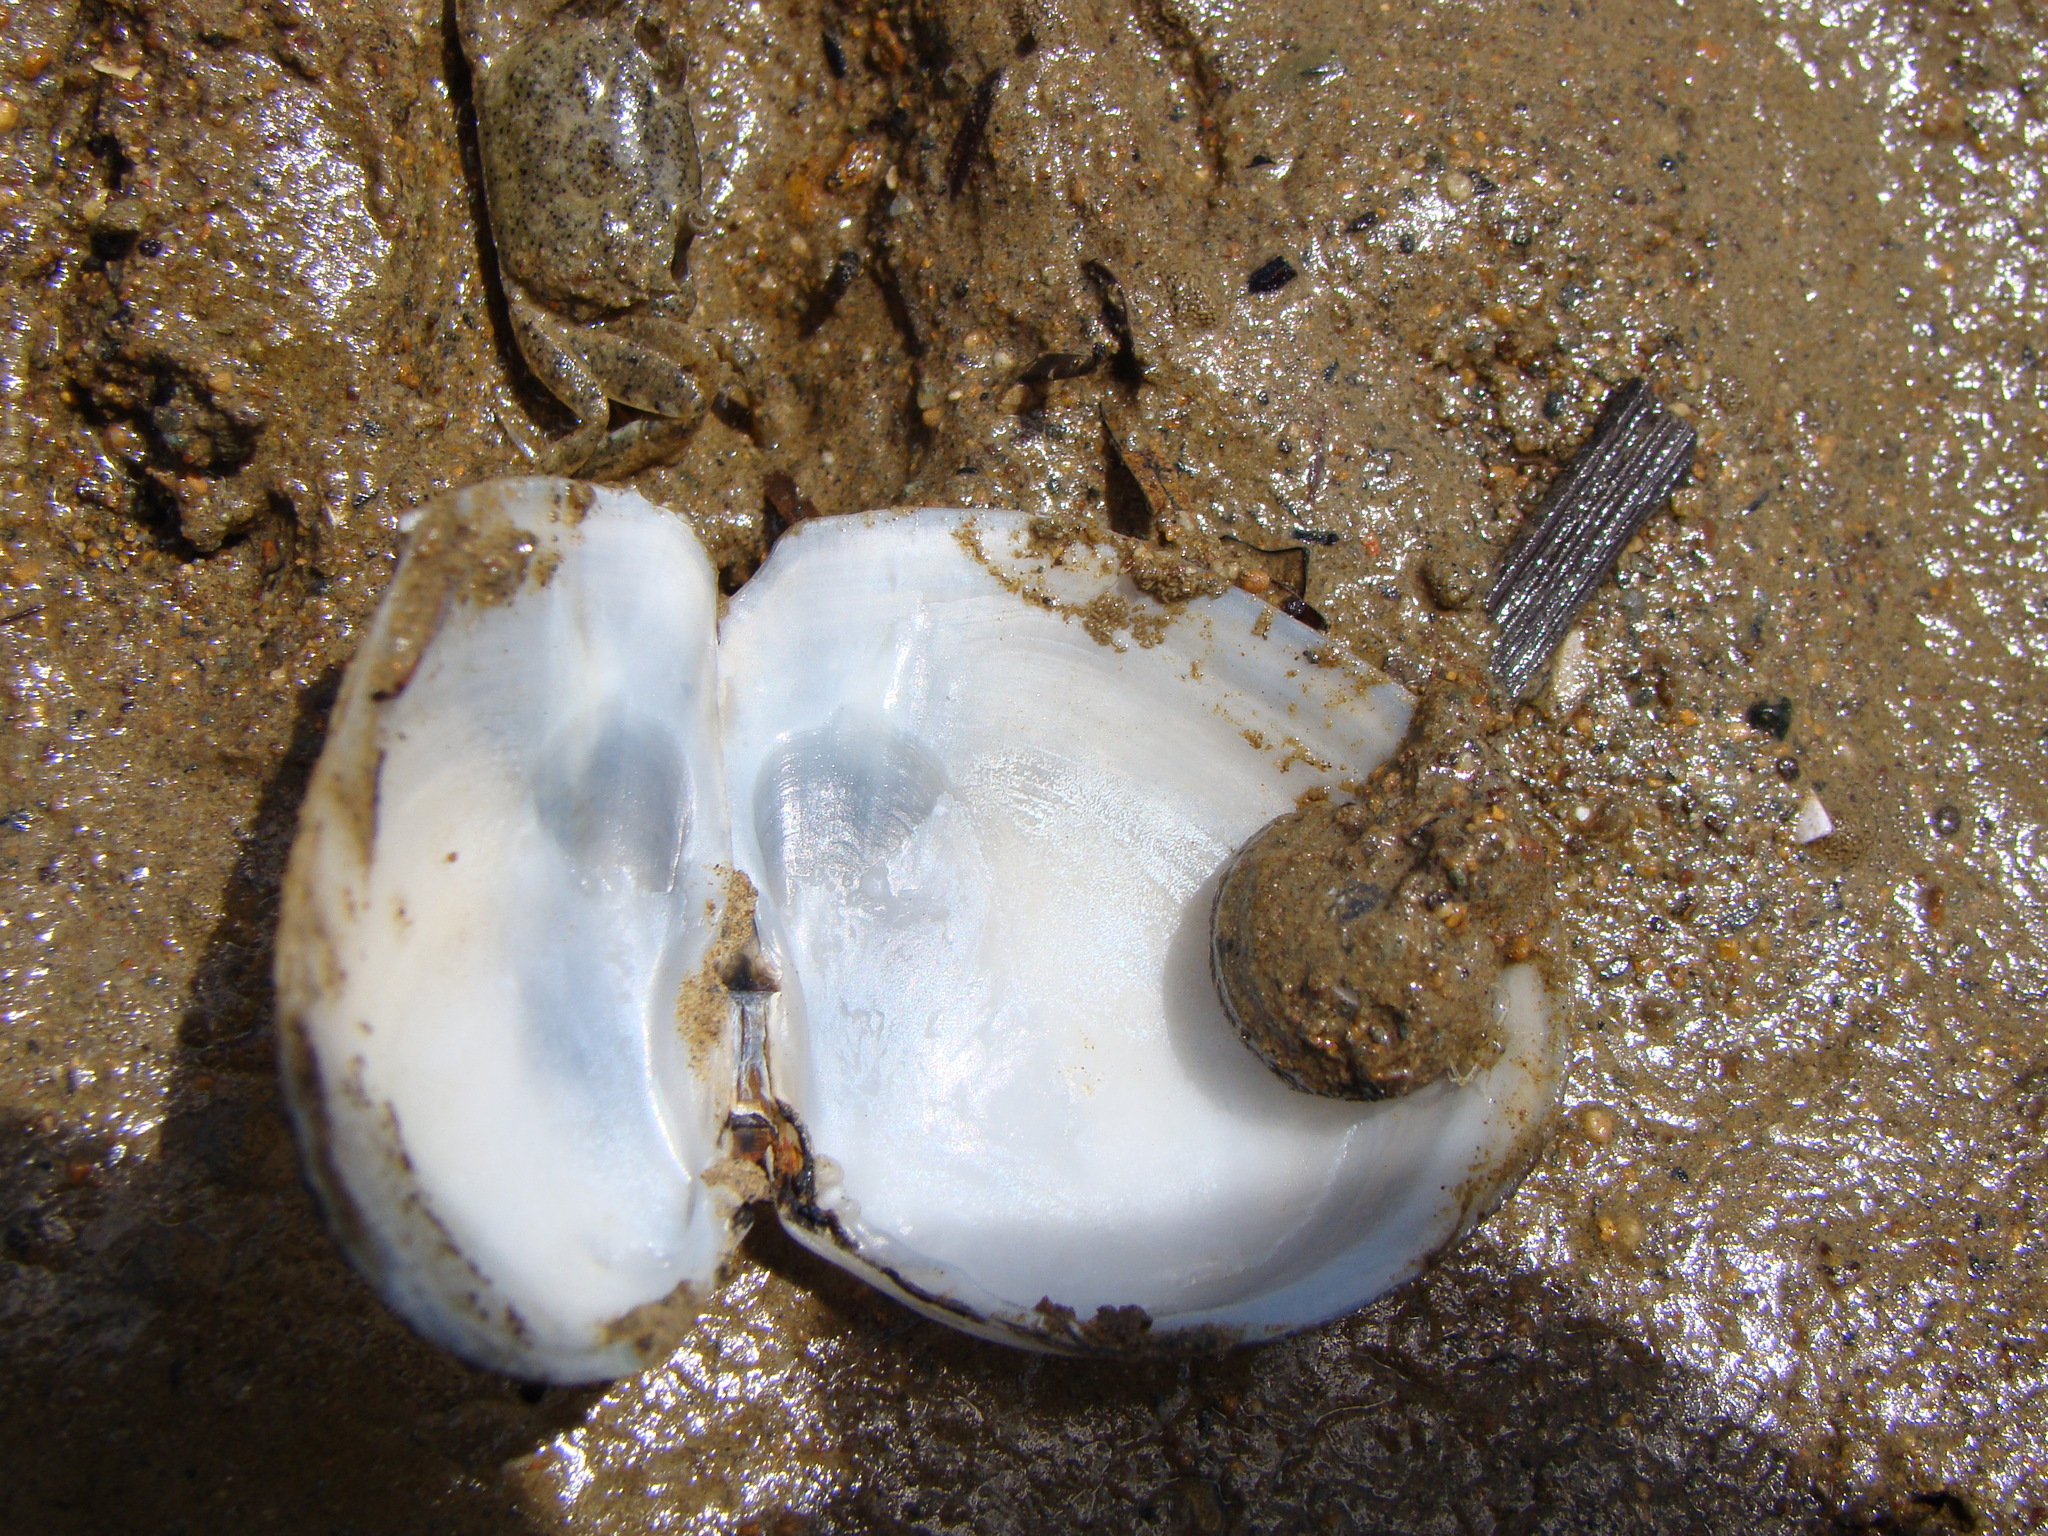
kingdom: Animalia
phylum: Mollusca
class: Bivalvia
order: Cardiida
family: Tellinidae
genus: Macomona
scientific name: Macomona liliana
